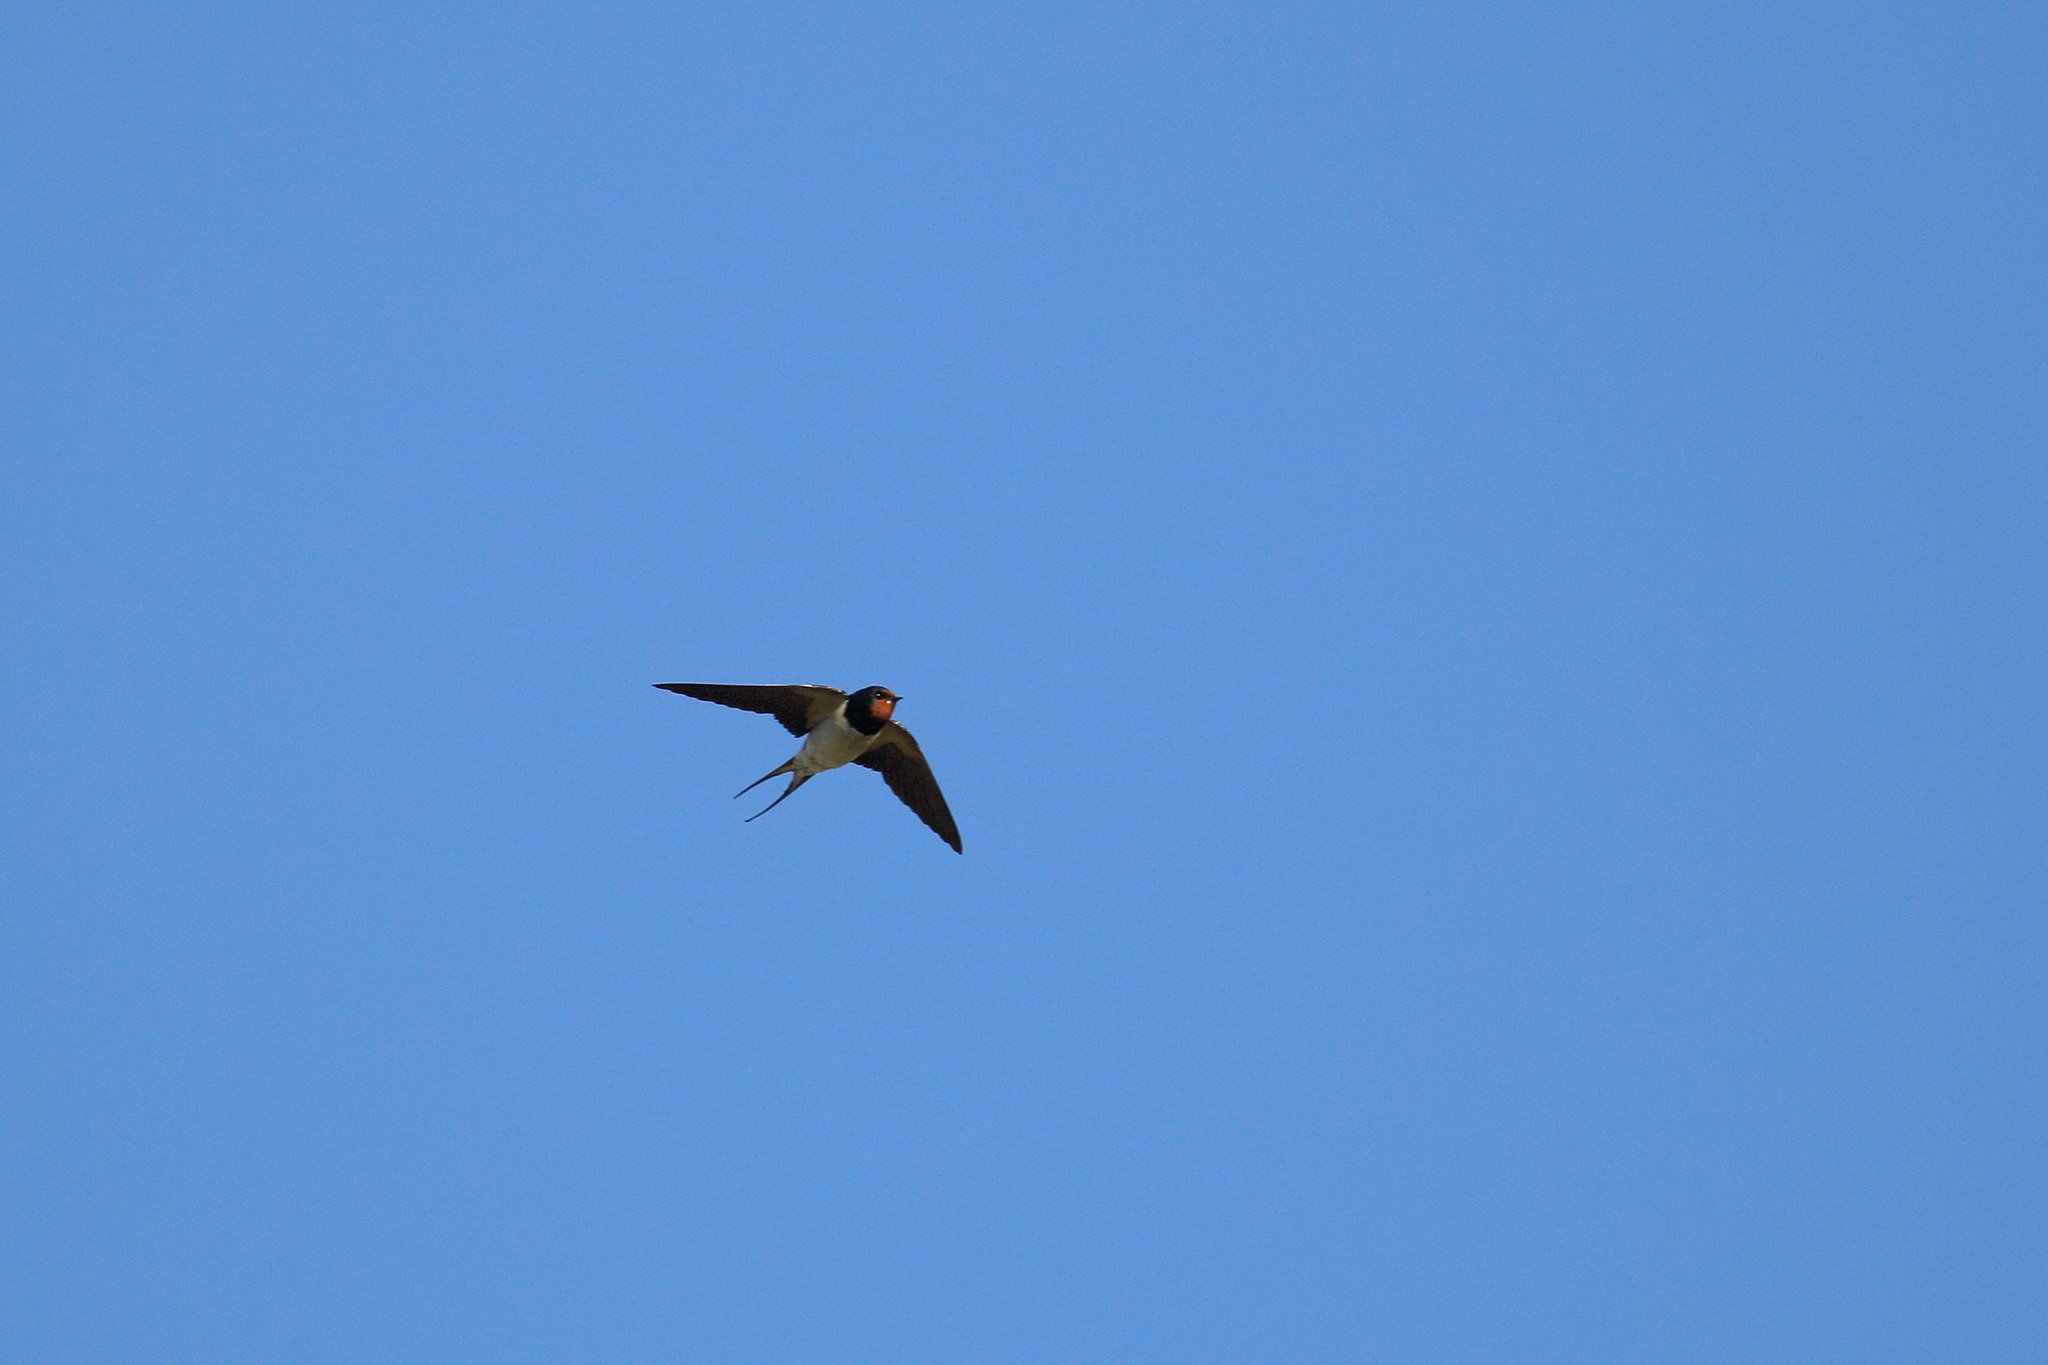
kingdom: Animalia
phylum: Chordata
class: Aves
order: Passeriformes
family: Hirundinidae
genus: Hirundo
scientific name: Hirundo rustica
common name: Barn swallow
